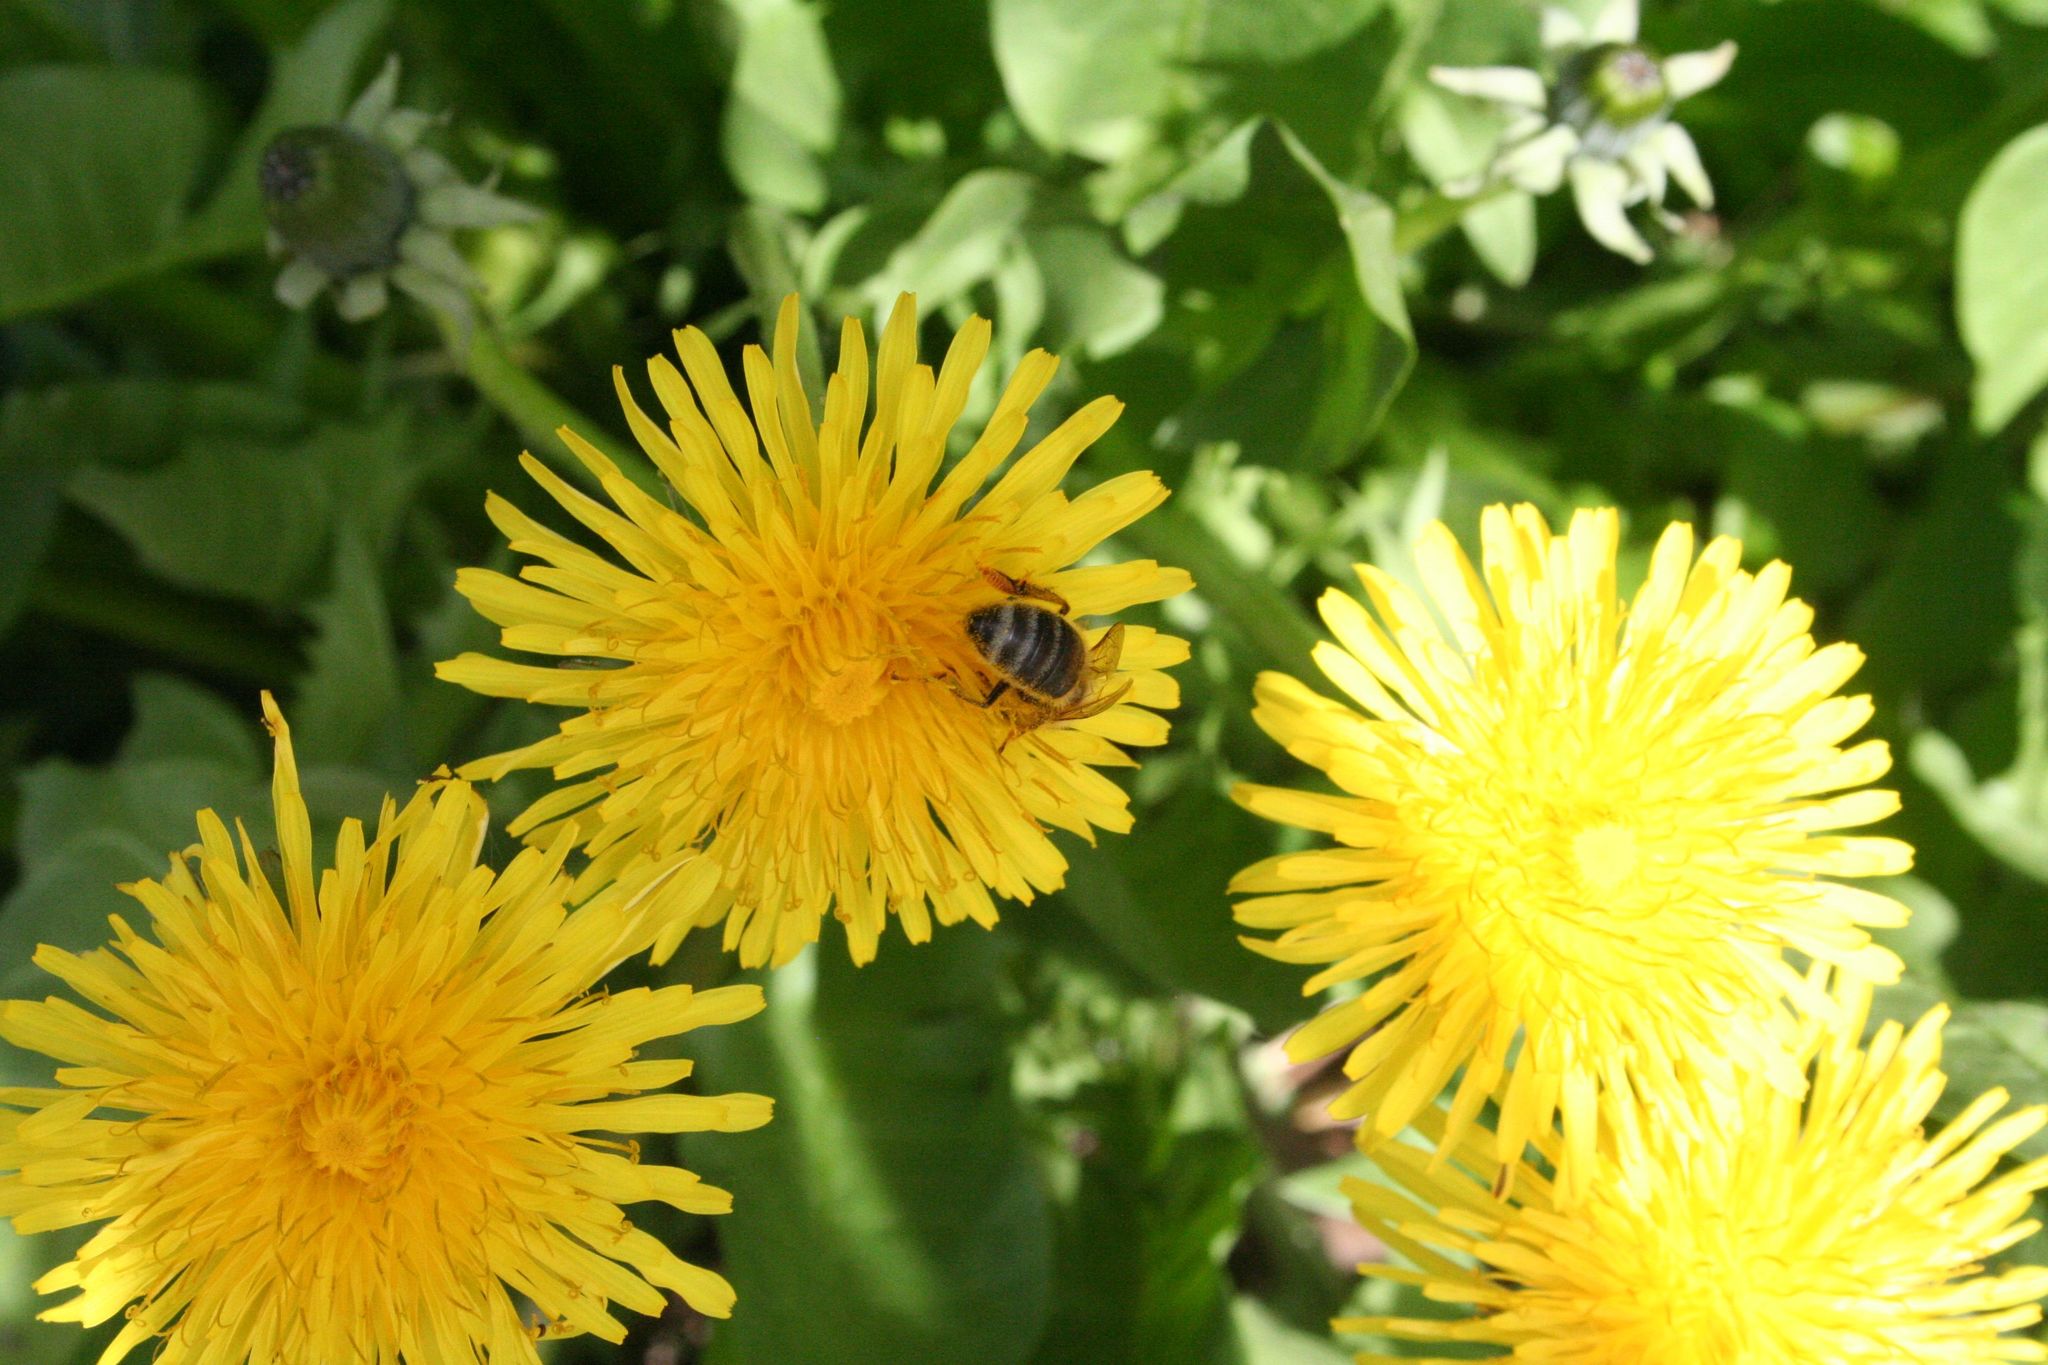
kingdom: Animalia
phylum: Arthropoda
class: Insecta
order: Hymenoptera
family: Apidae
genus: Apis
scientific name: Apis mellifera
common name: Honey bee
